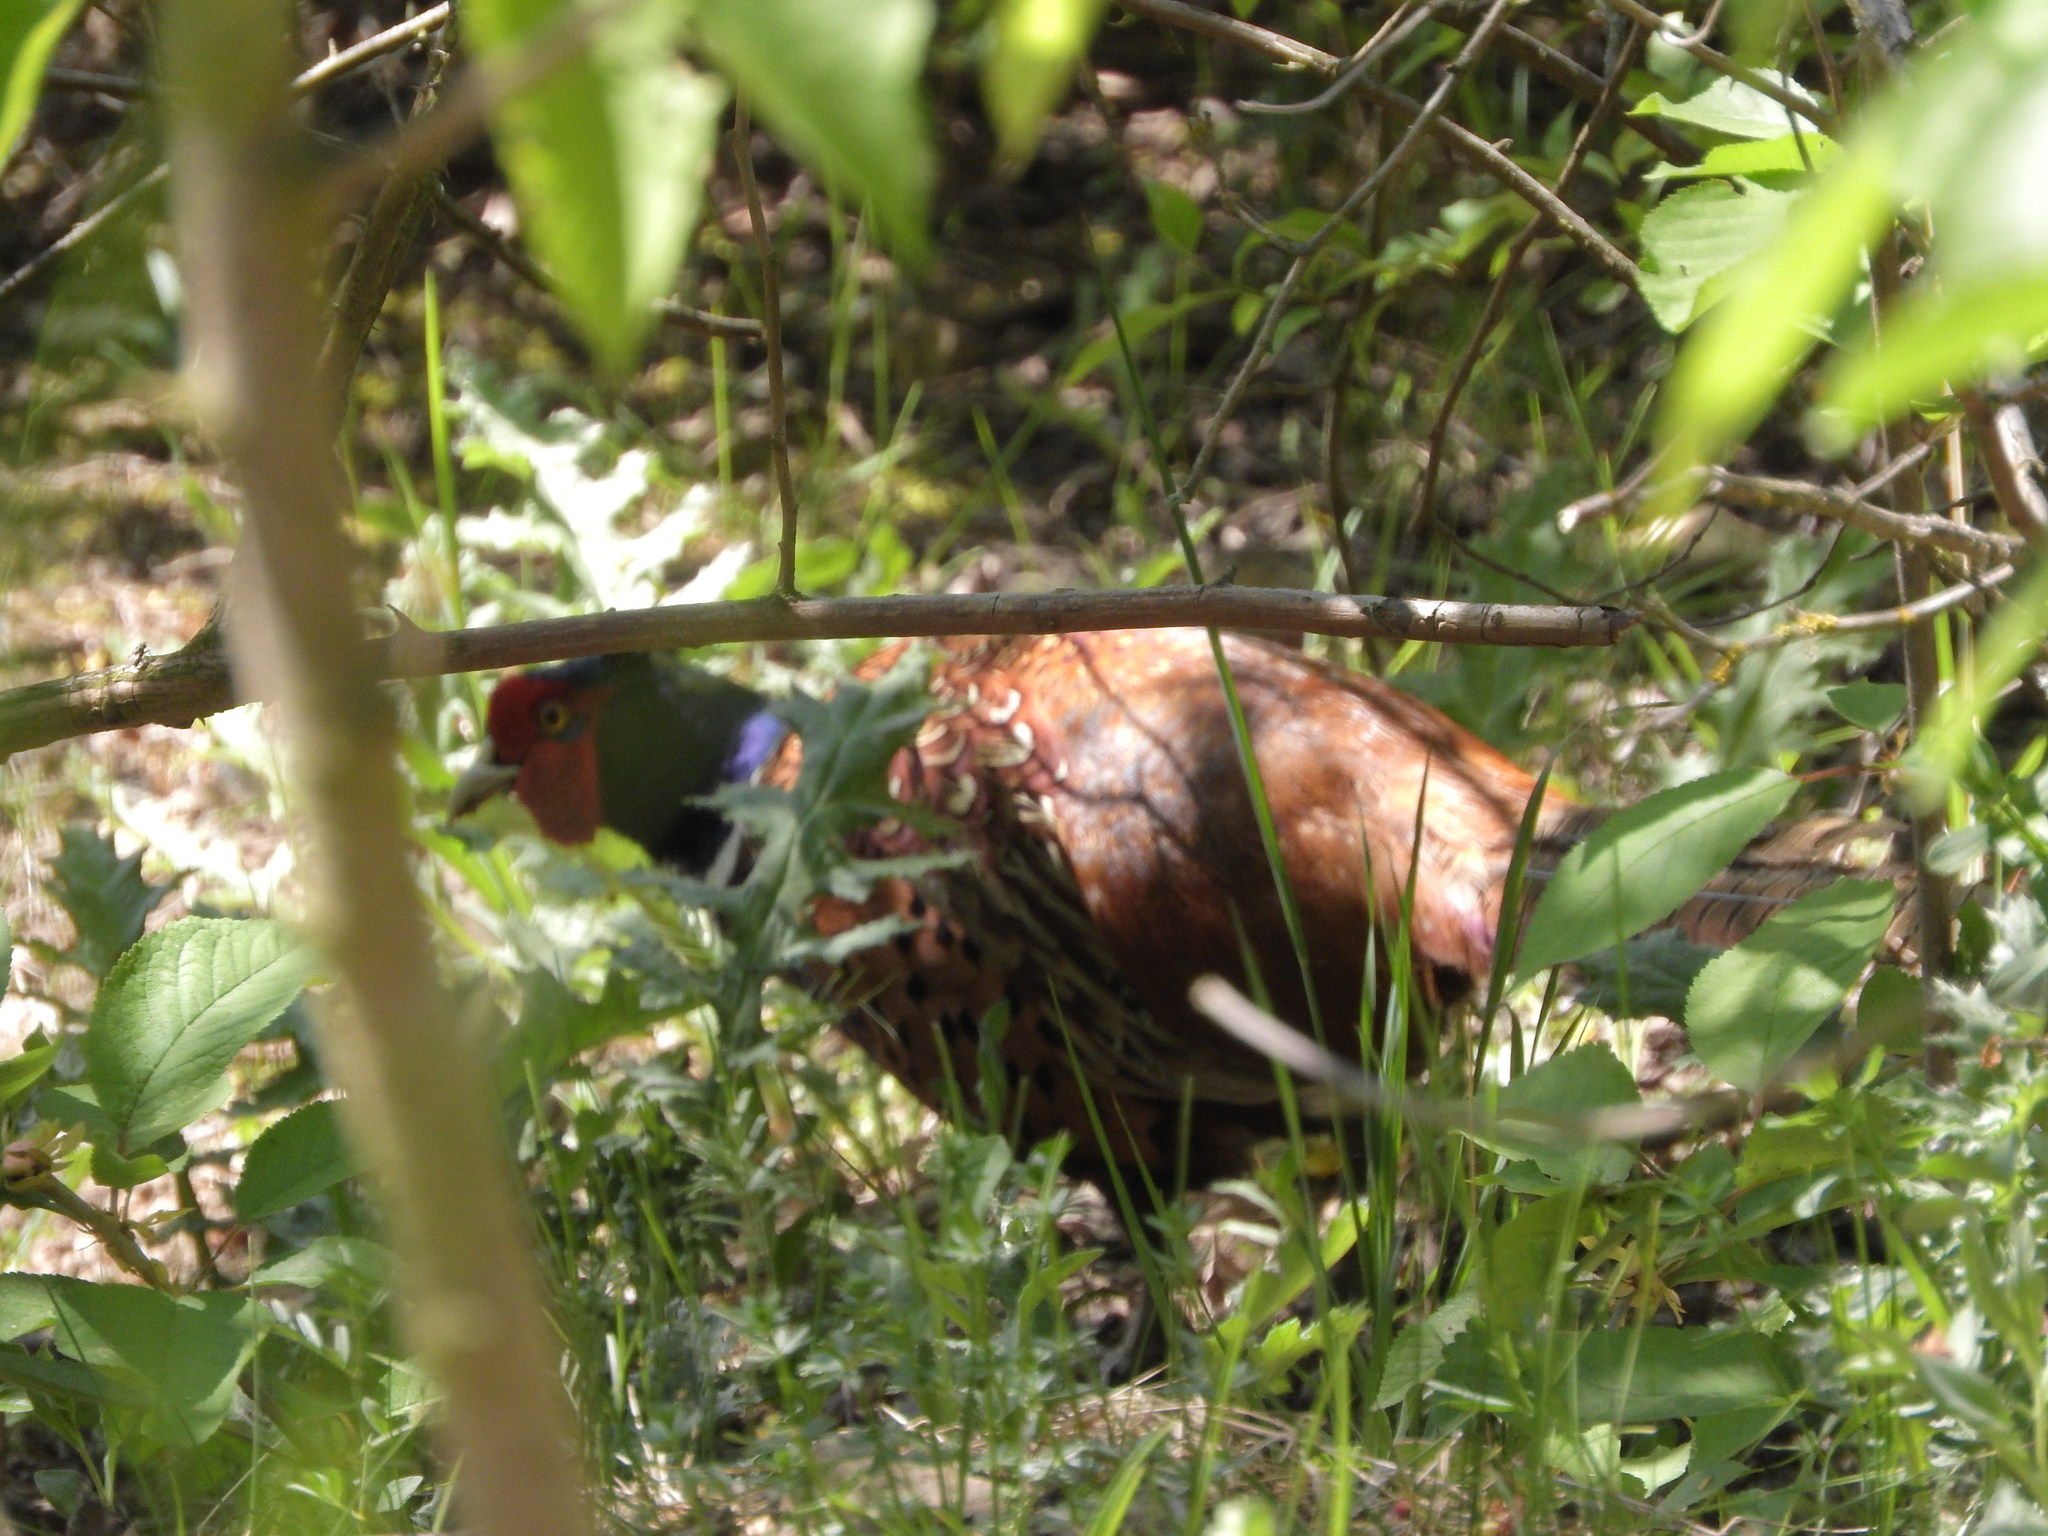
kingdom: Animalia
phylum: Chordata
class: Aves
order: Galliformes
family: Phasianidae
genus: Phasianus
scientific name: Phasianus colchicus
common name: Common pheasant
